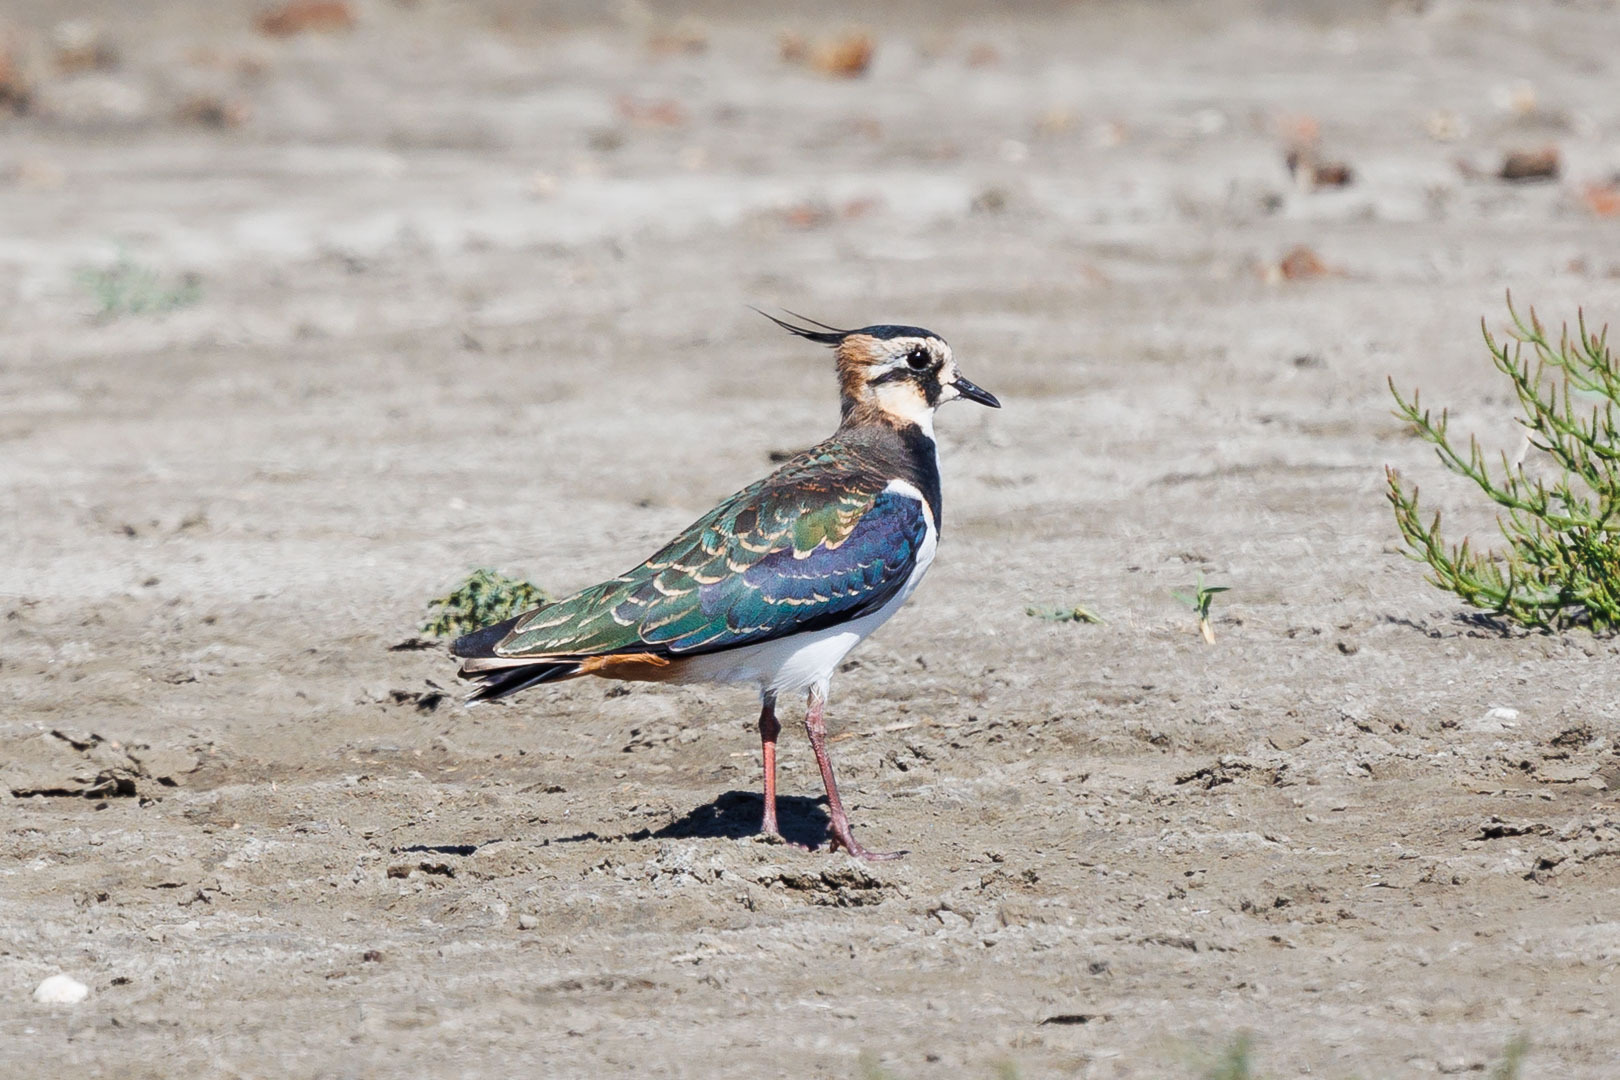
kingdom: Animalia
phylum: Chordata
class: Aves
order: Charadriiformes
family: Charadriidae
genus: Vanellus
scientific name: Vanellus vanellus
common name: Northern lapwing
